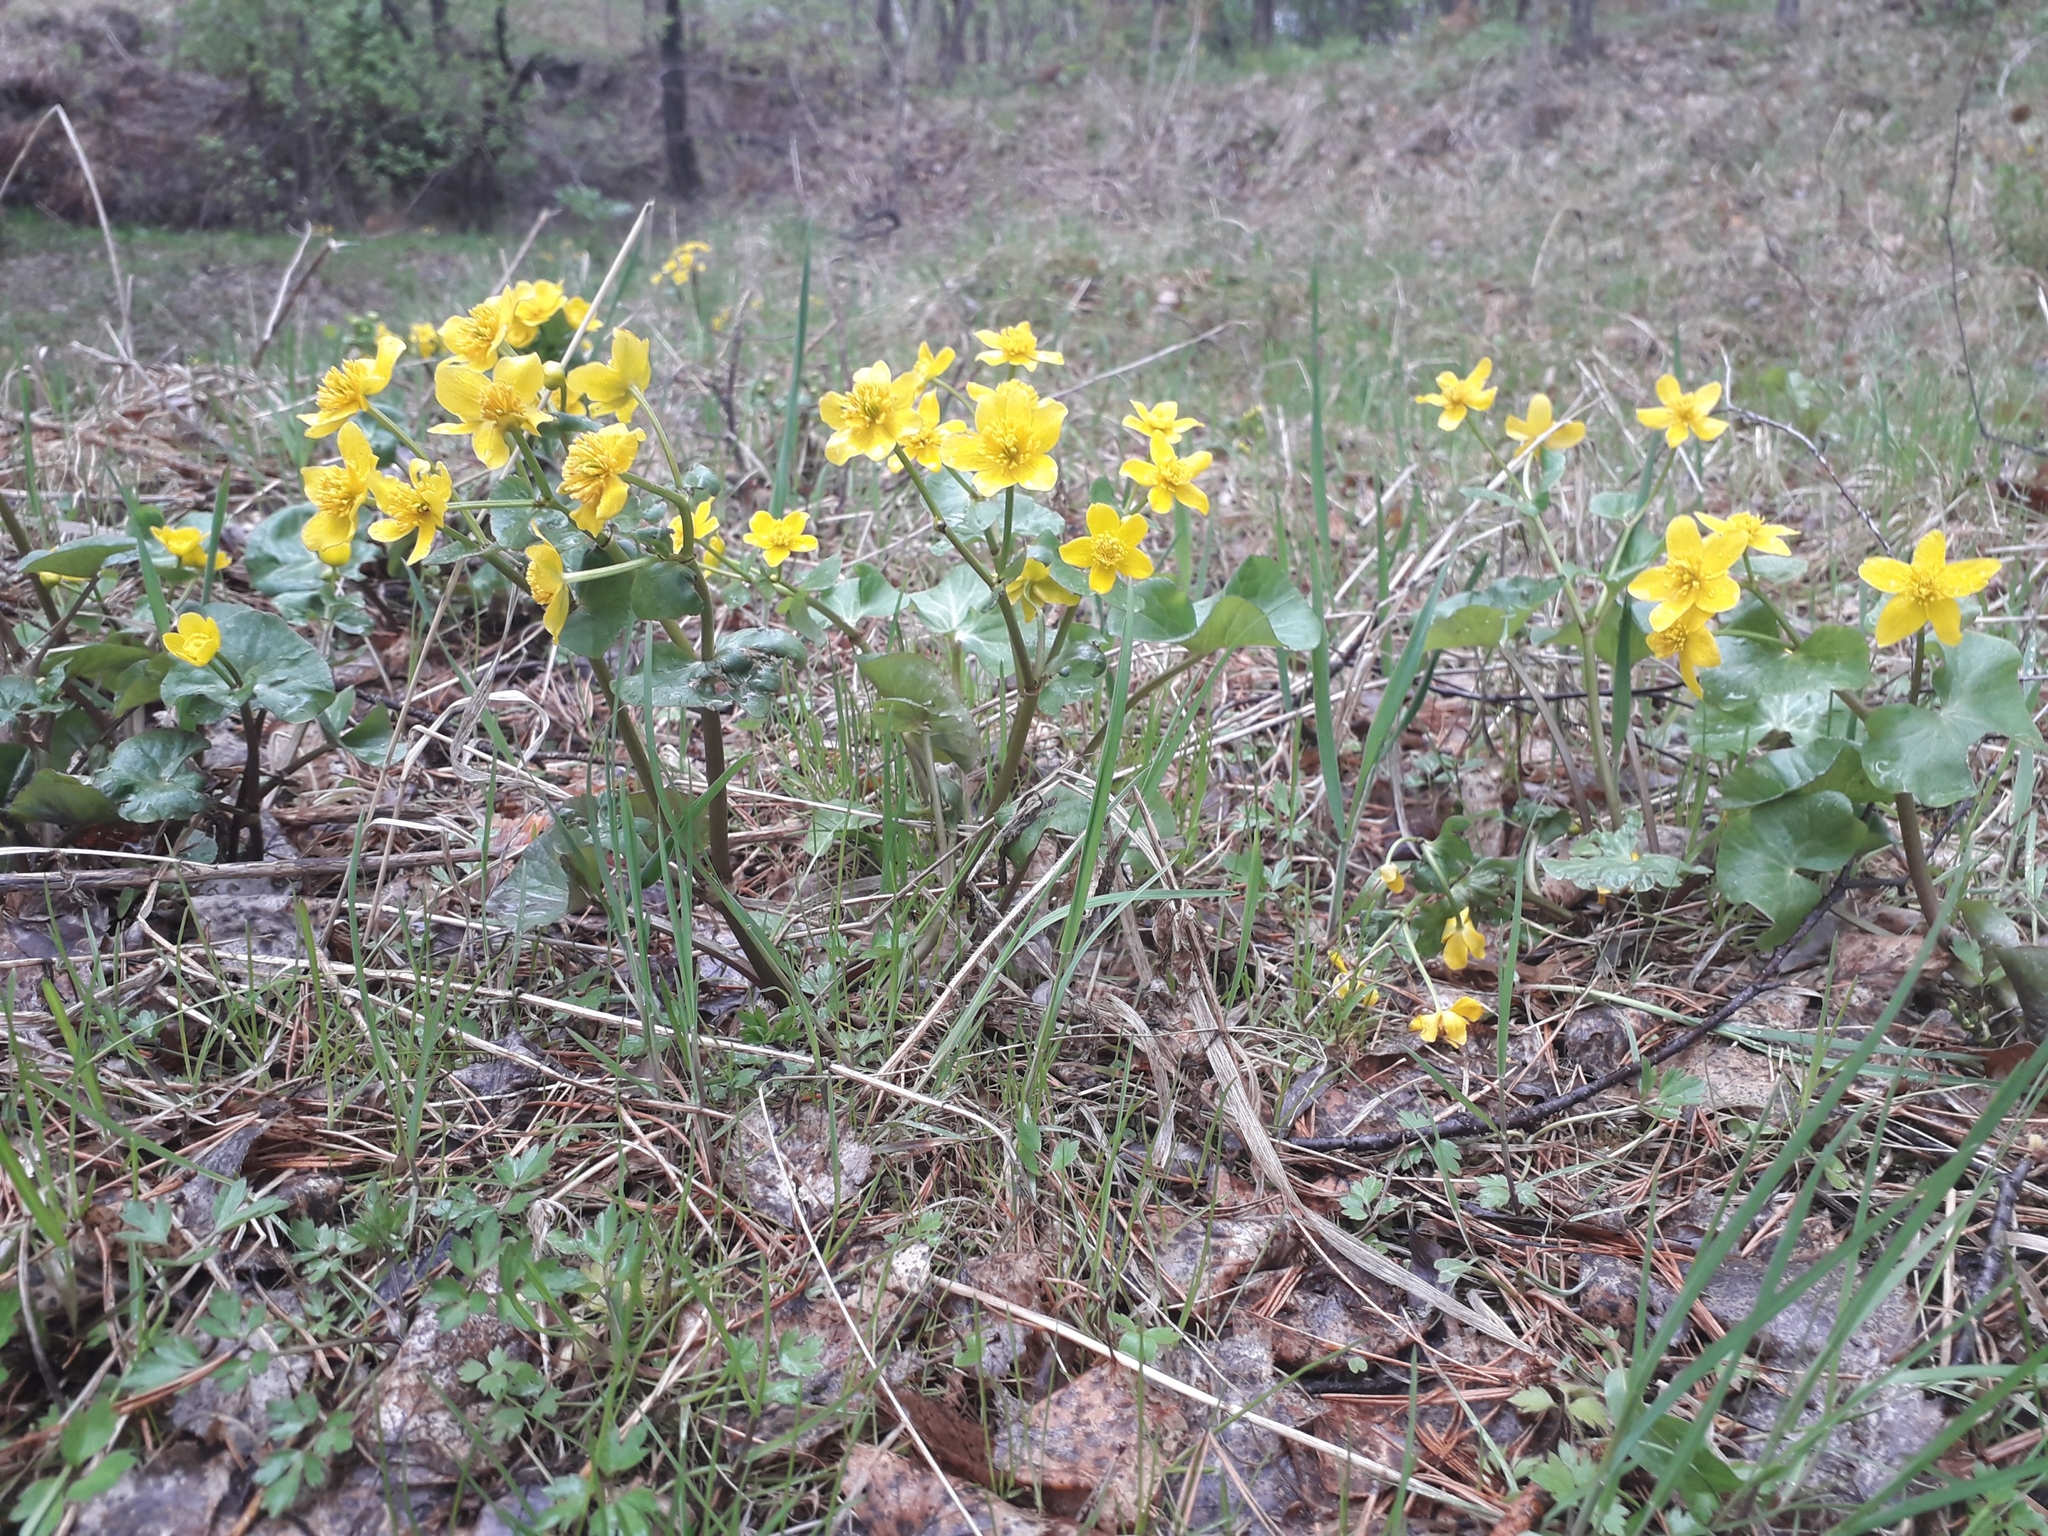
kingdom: Plantae
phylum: Tracheophyta
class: Magnoliopsida
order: Ranunculales
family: Ranunculaceae
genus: Caltha
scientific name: Caltha palustris
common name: Marsh marigold
